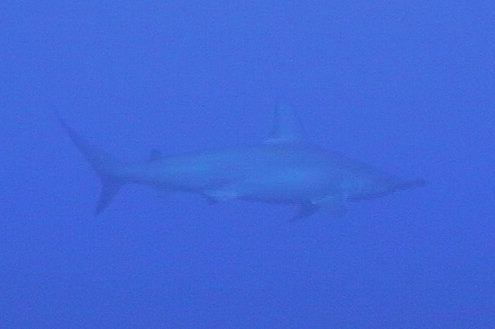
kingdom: Animalia
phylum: Chordata
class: Elasmobranchii
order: Carcharhiniformes
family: Sphyrnidae
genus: Sphyrna
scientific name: Sphyrna lewini
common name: Scalloped hammerhead
